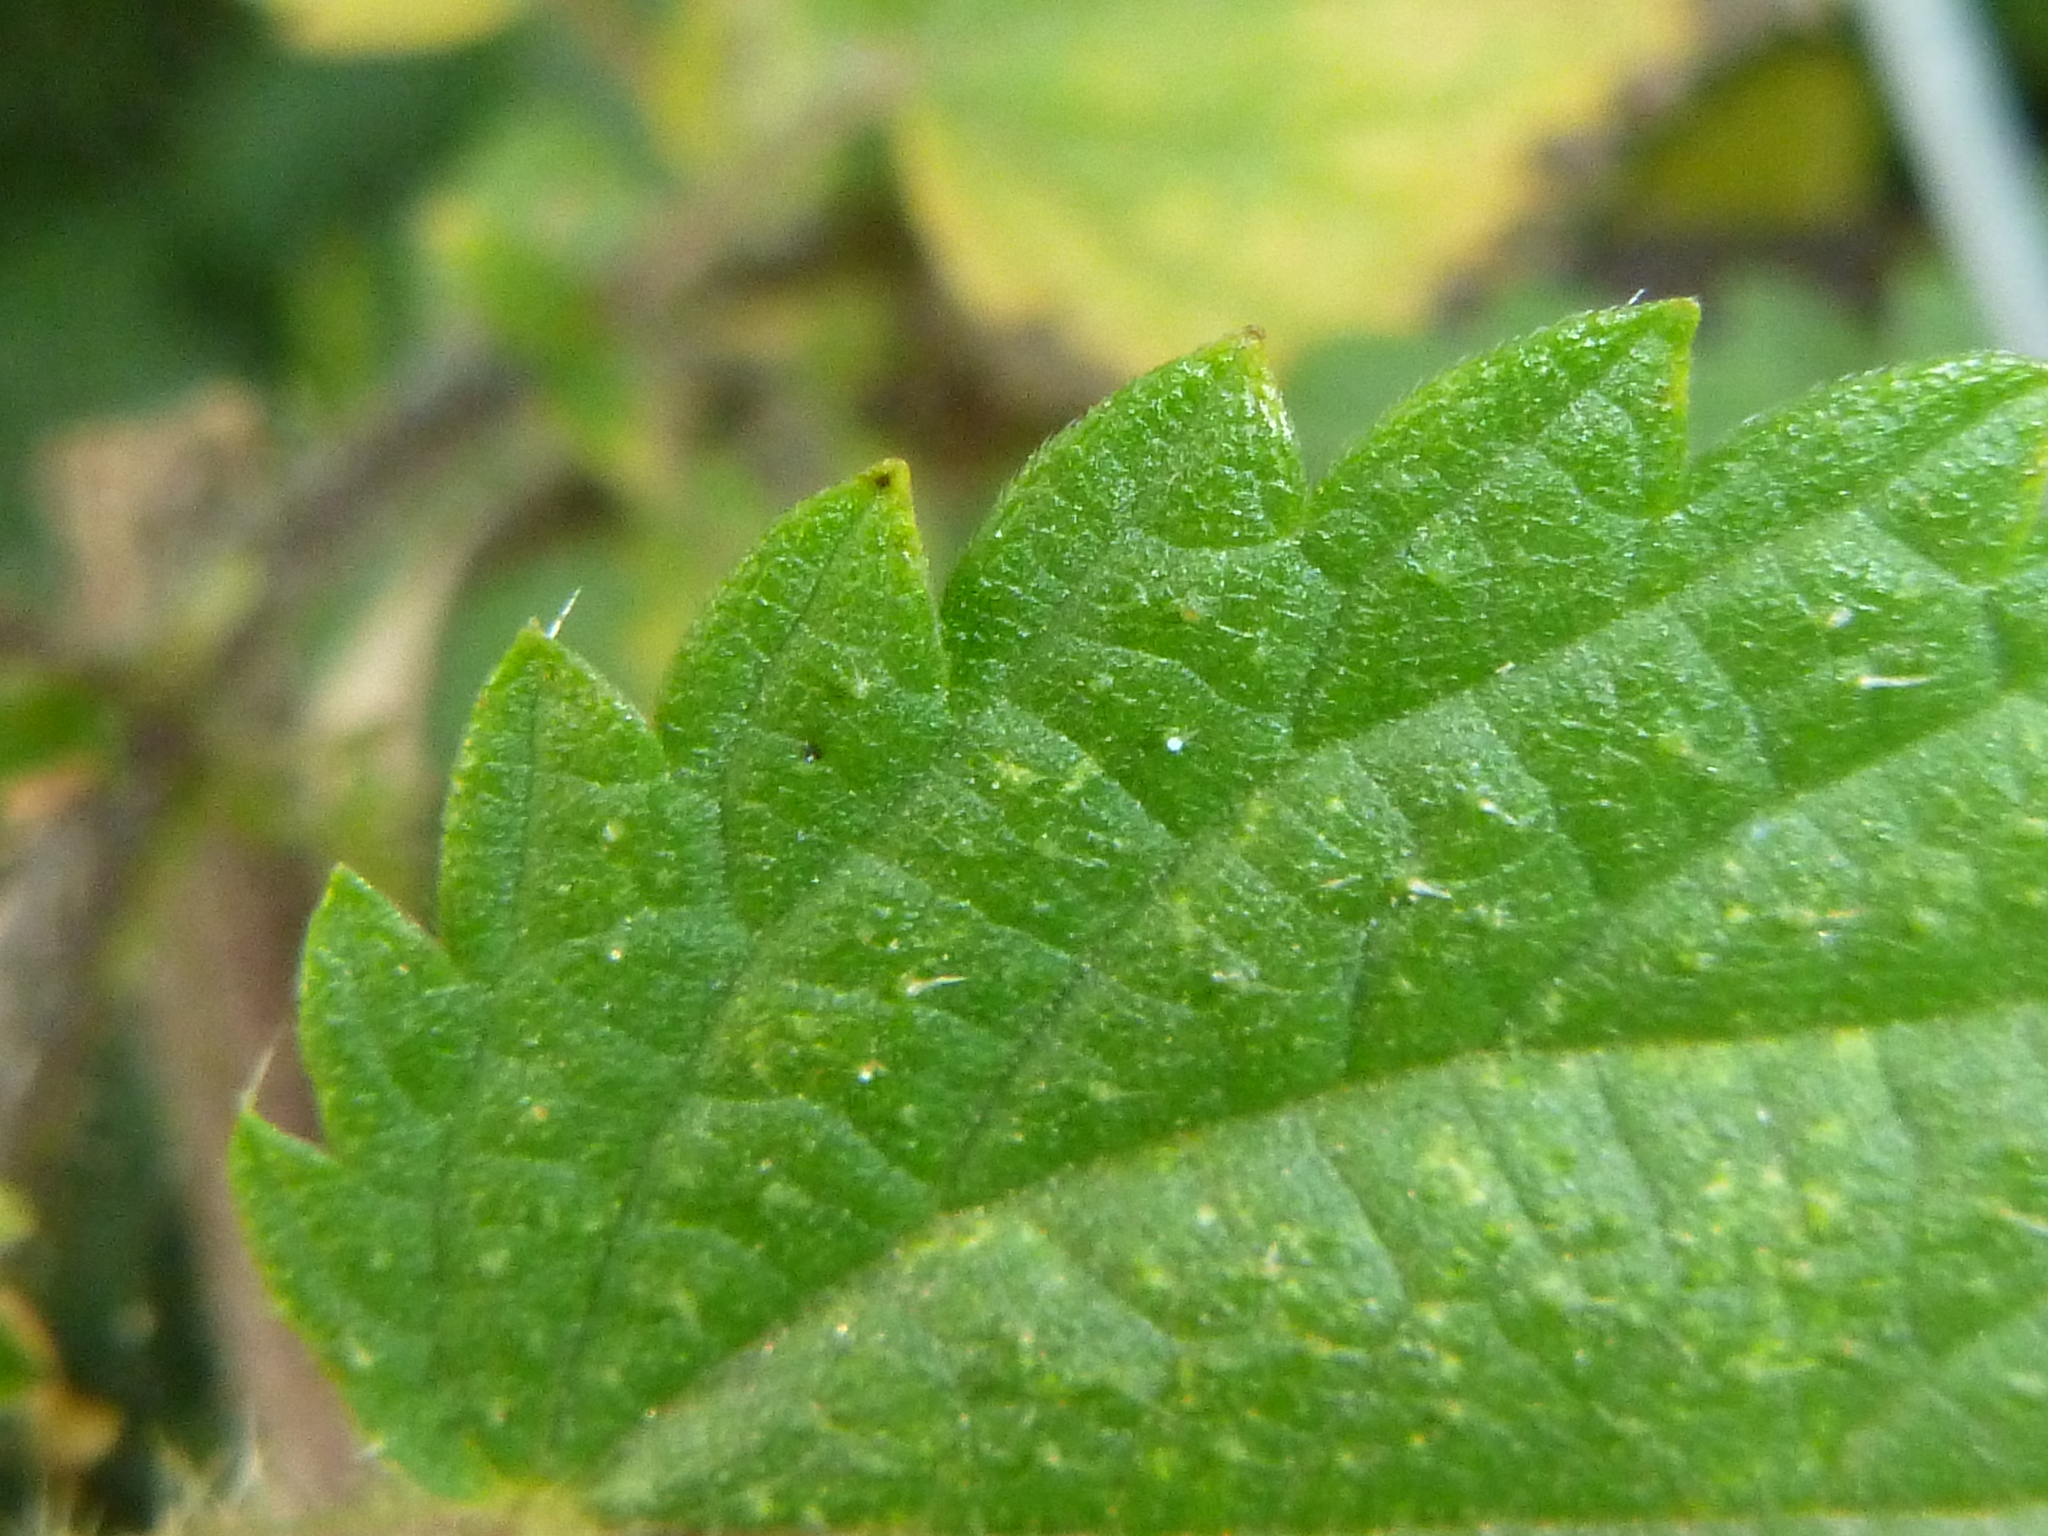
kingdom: Plantae
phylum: Tracheophyta
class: Magnoliopsida
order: Rosales
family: Urticaceae
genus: Urtica
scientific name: Urtica dioica
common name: Common nettle
